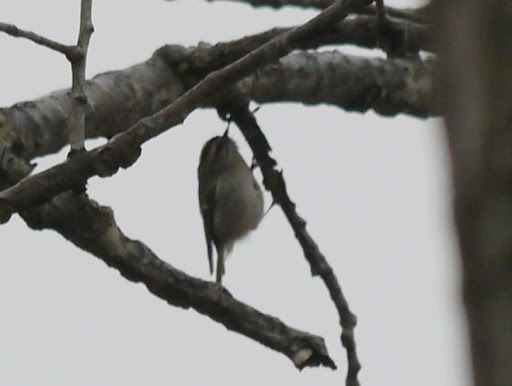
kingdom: Animalia
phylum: Chordata
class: Aves
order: Passeriformes
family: Regulidae
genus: Regulus
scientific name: Regulus satrapa
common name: Golden-crowned kinglet
